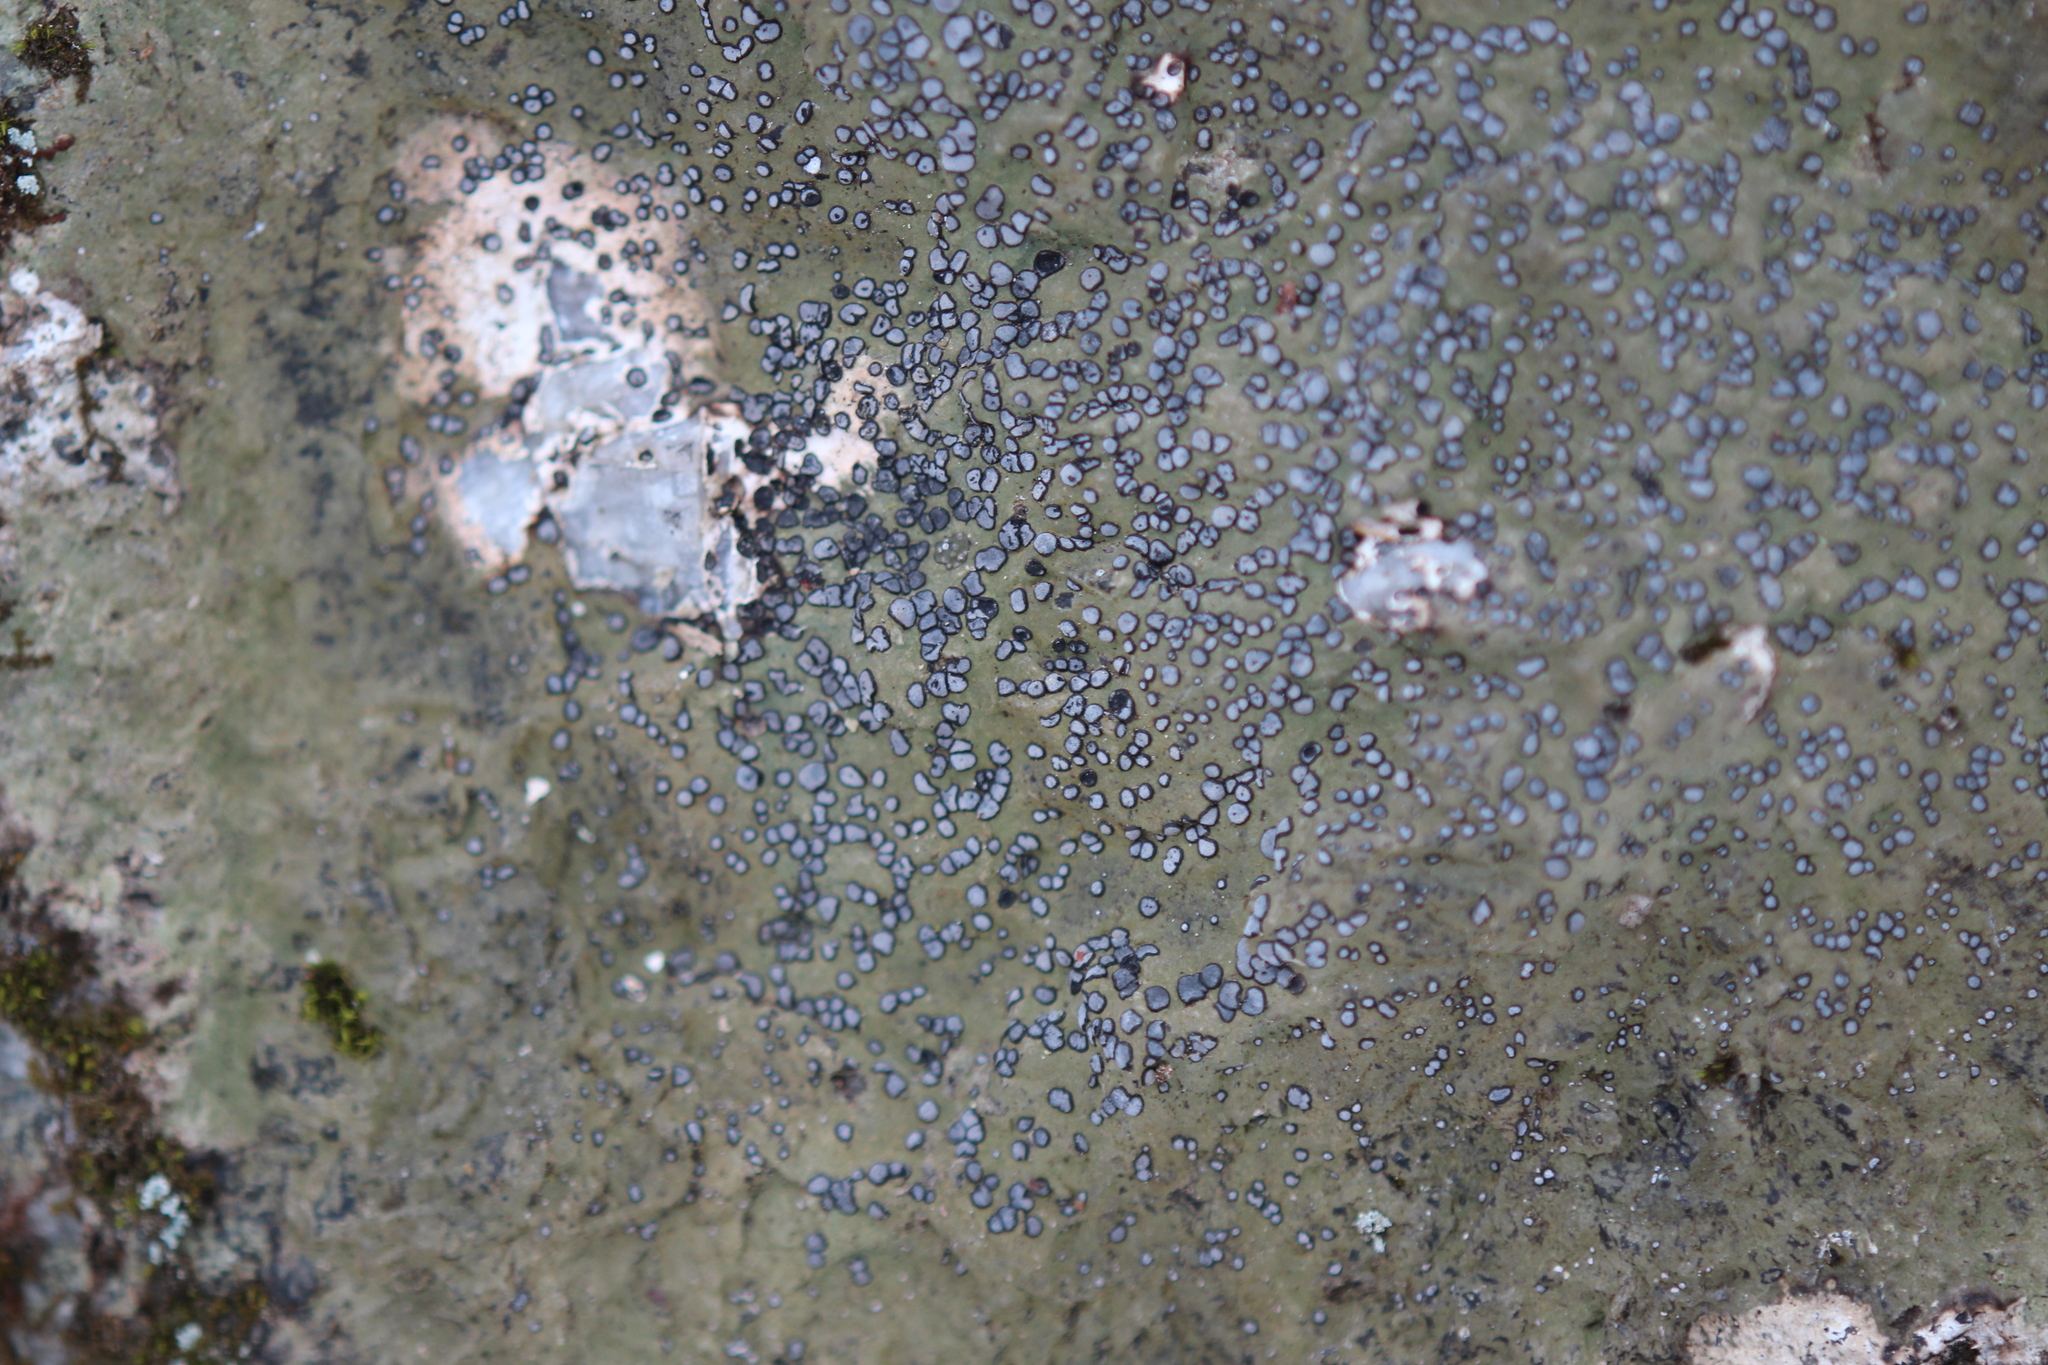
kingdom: Fungi
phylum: Ascomycota
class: Lecanoromycetes
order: Lecideales
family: Lecideaceae
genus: Porpidia
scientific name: Porpidia albocaerulescens
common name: Smokey-eyed boulder lichen
